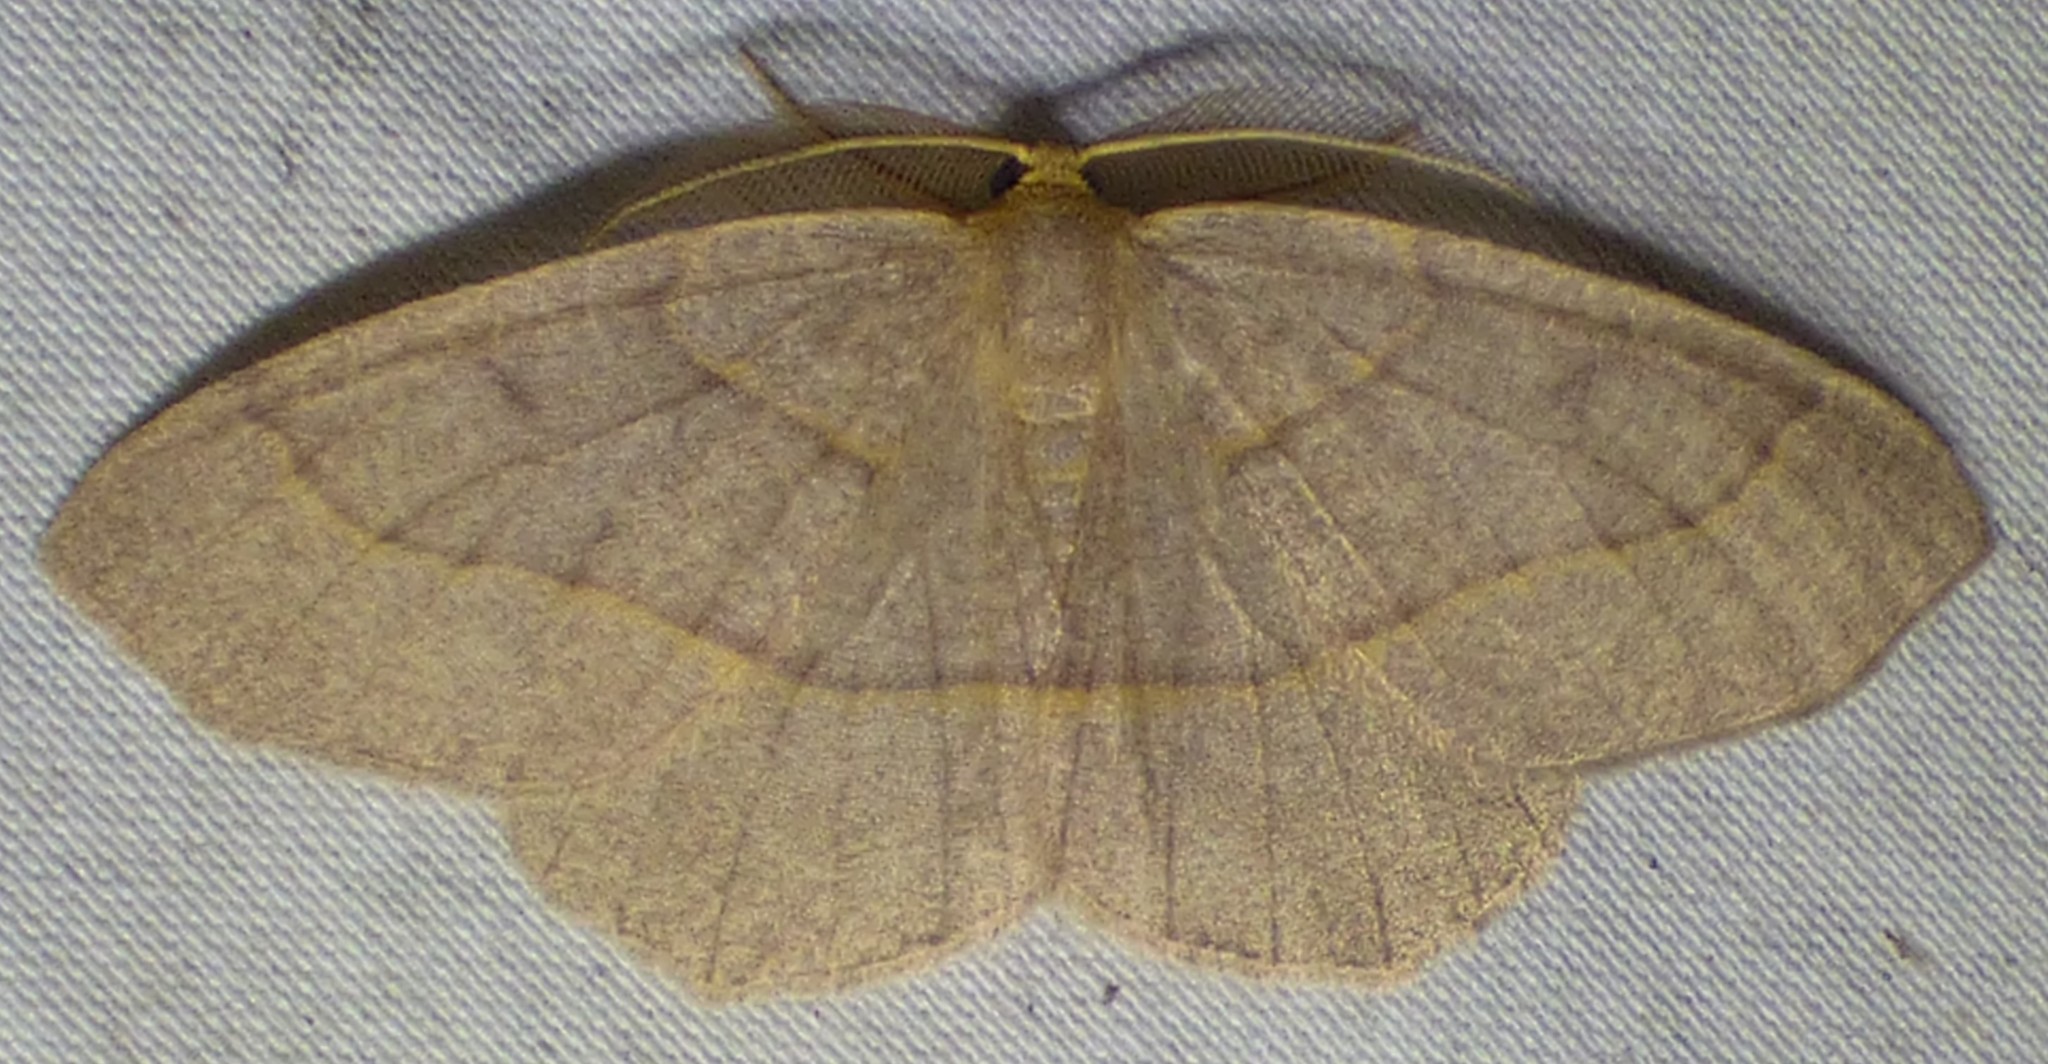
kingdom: Animalia
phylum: Arthropoda
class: Insecta
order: Lepidoptera
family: Geometridae
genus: Lambdina
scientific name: Lambdina fervidaria
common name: Curve-lined looper moth
